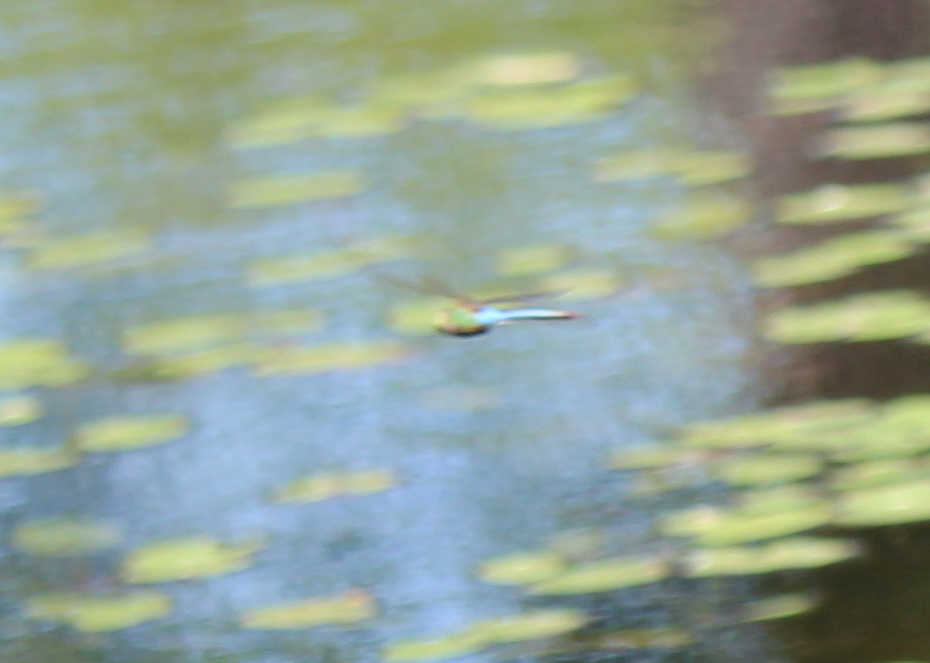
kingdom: Animalia
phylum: Arthropoda
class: Insecta
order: Odonata
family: Aeshnidae
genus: Anax
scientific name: Anax junius
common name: Common green darner
